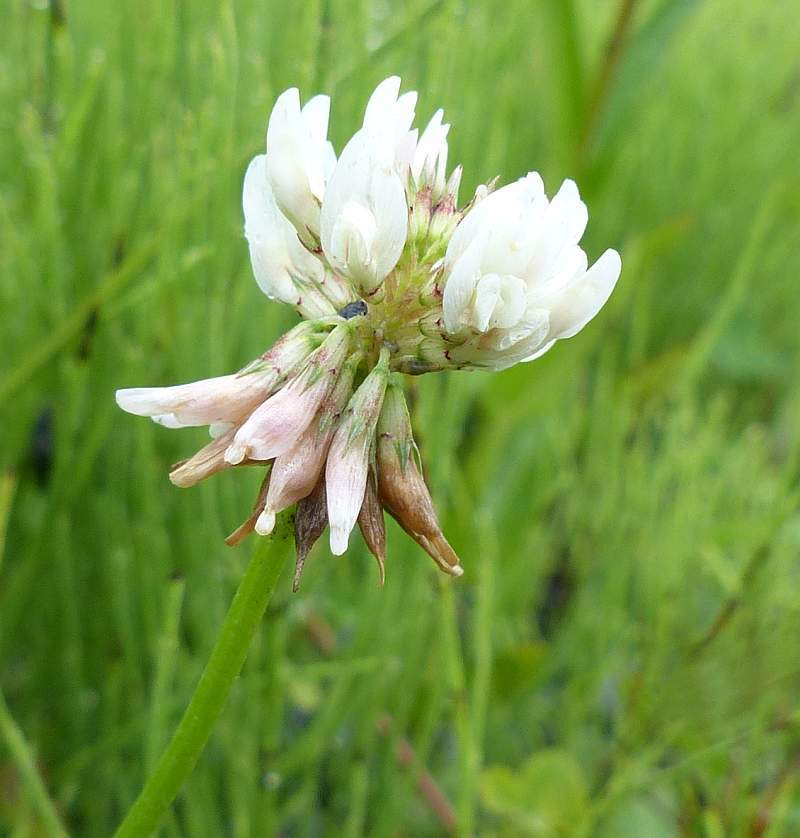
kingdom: Plantae
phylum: Tracheophyta
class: Magnoliopsida
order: Fabales
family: Fabaceae
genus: Trifolium
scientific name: Trifolium repens
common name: White clover
